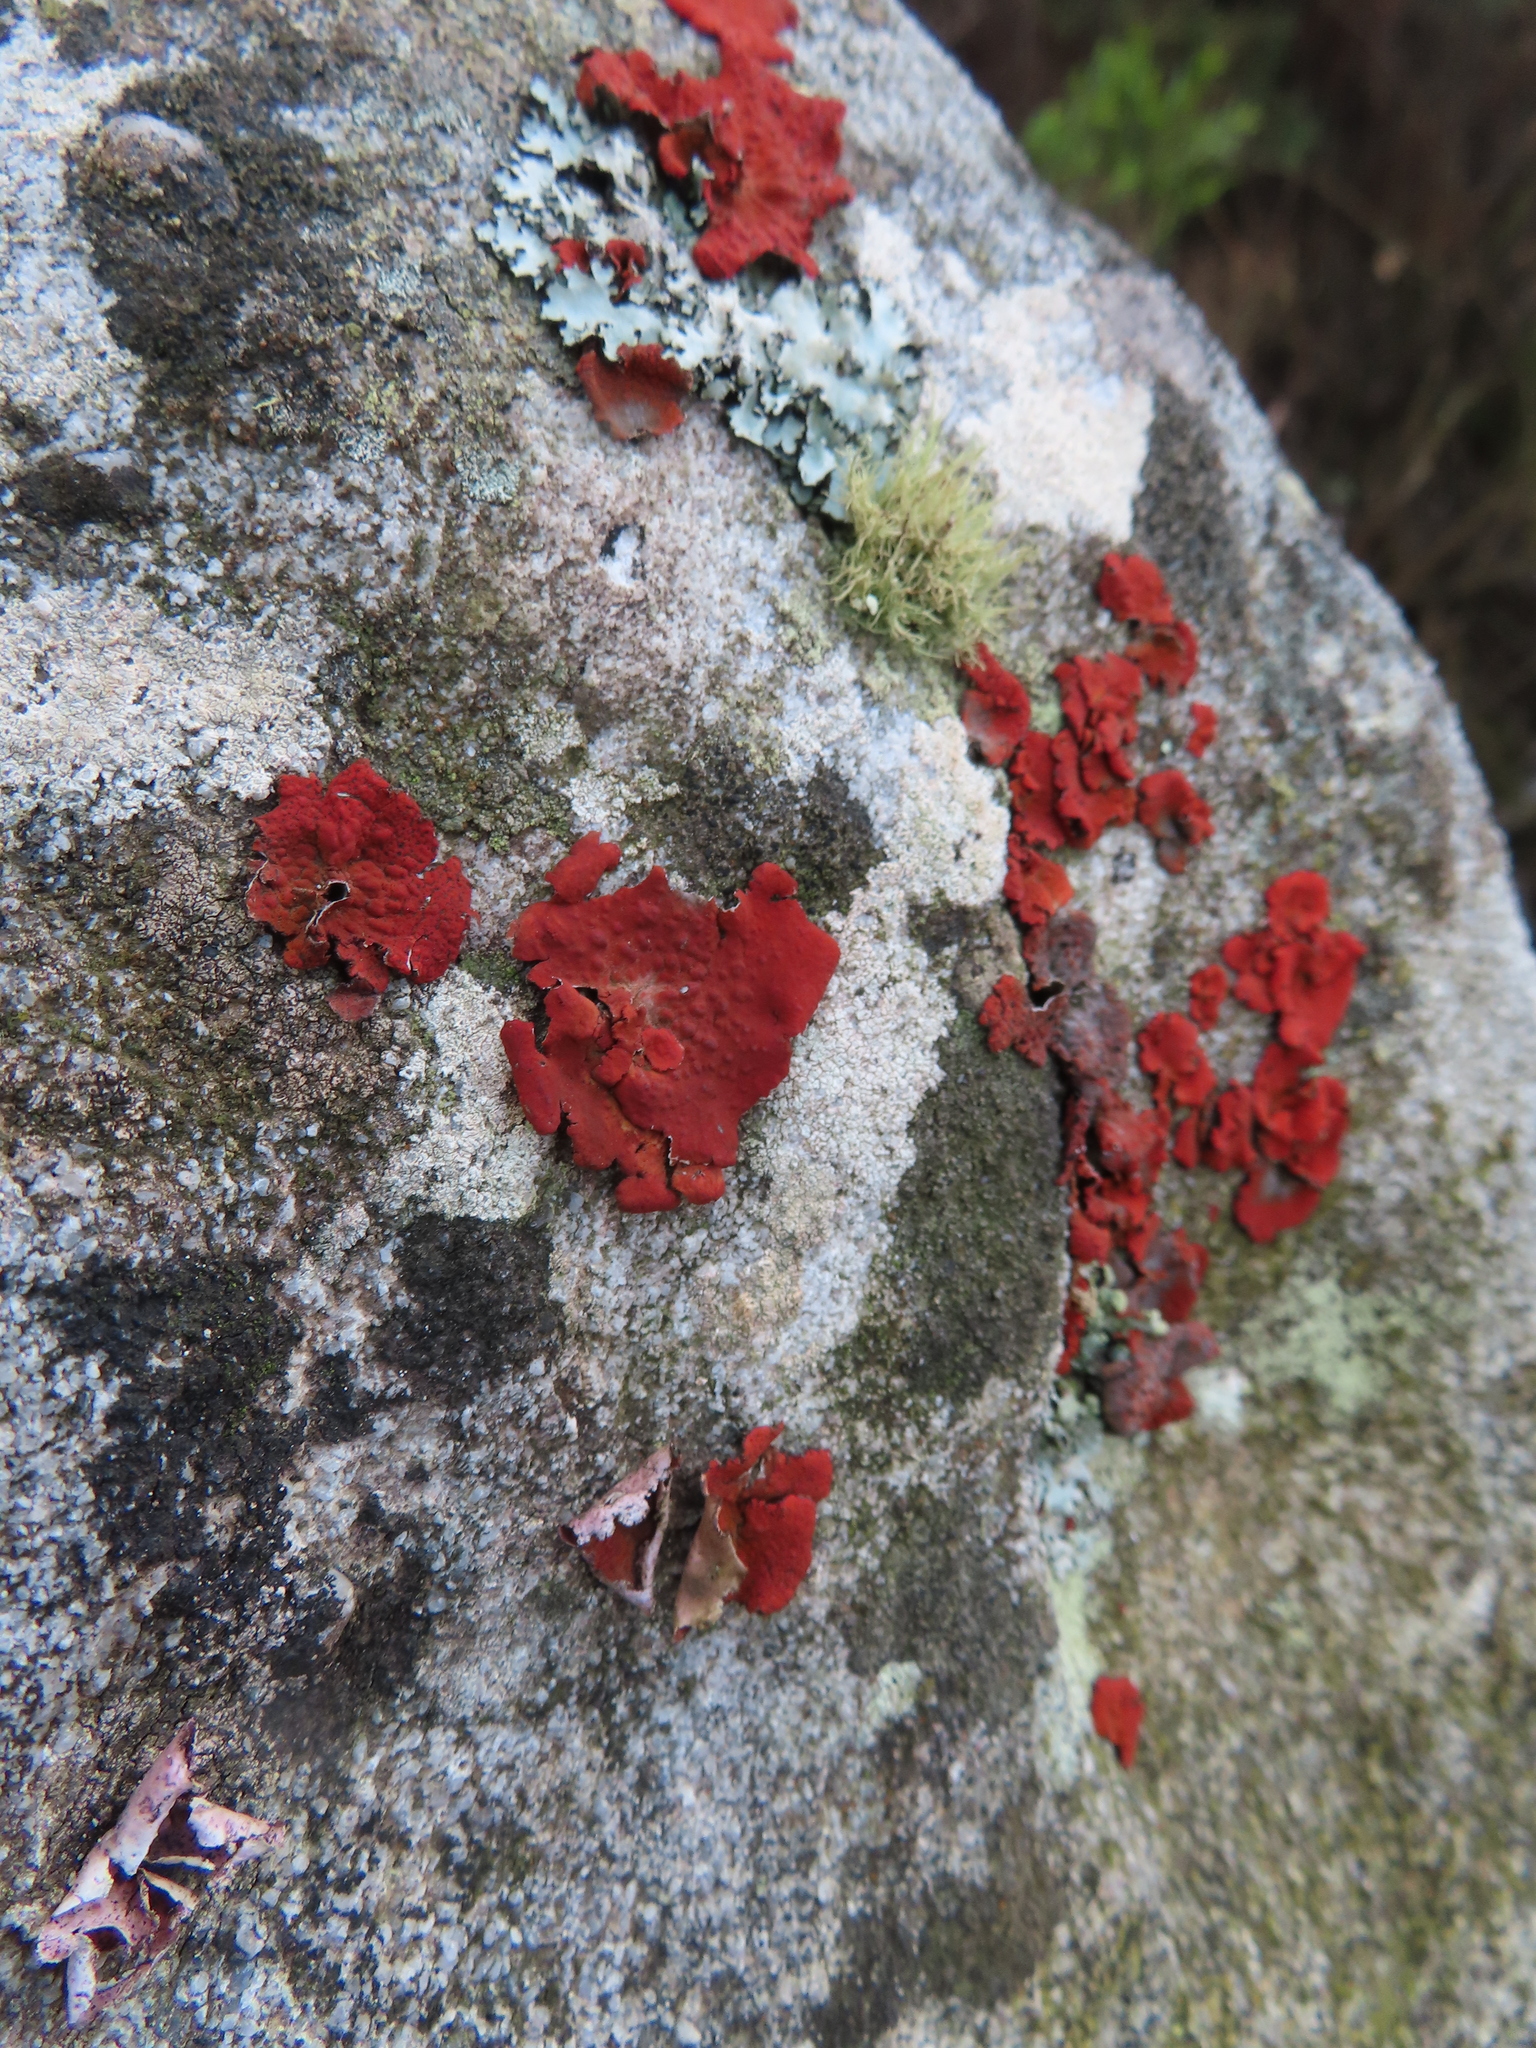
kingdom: Fungi
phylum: Ascomycota
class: Lecanoromycetes
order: Umbilicariales
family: Umbilicariaceae
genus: Lasallia
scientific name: Lasallia rubiginosa
